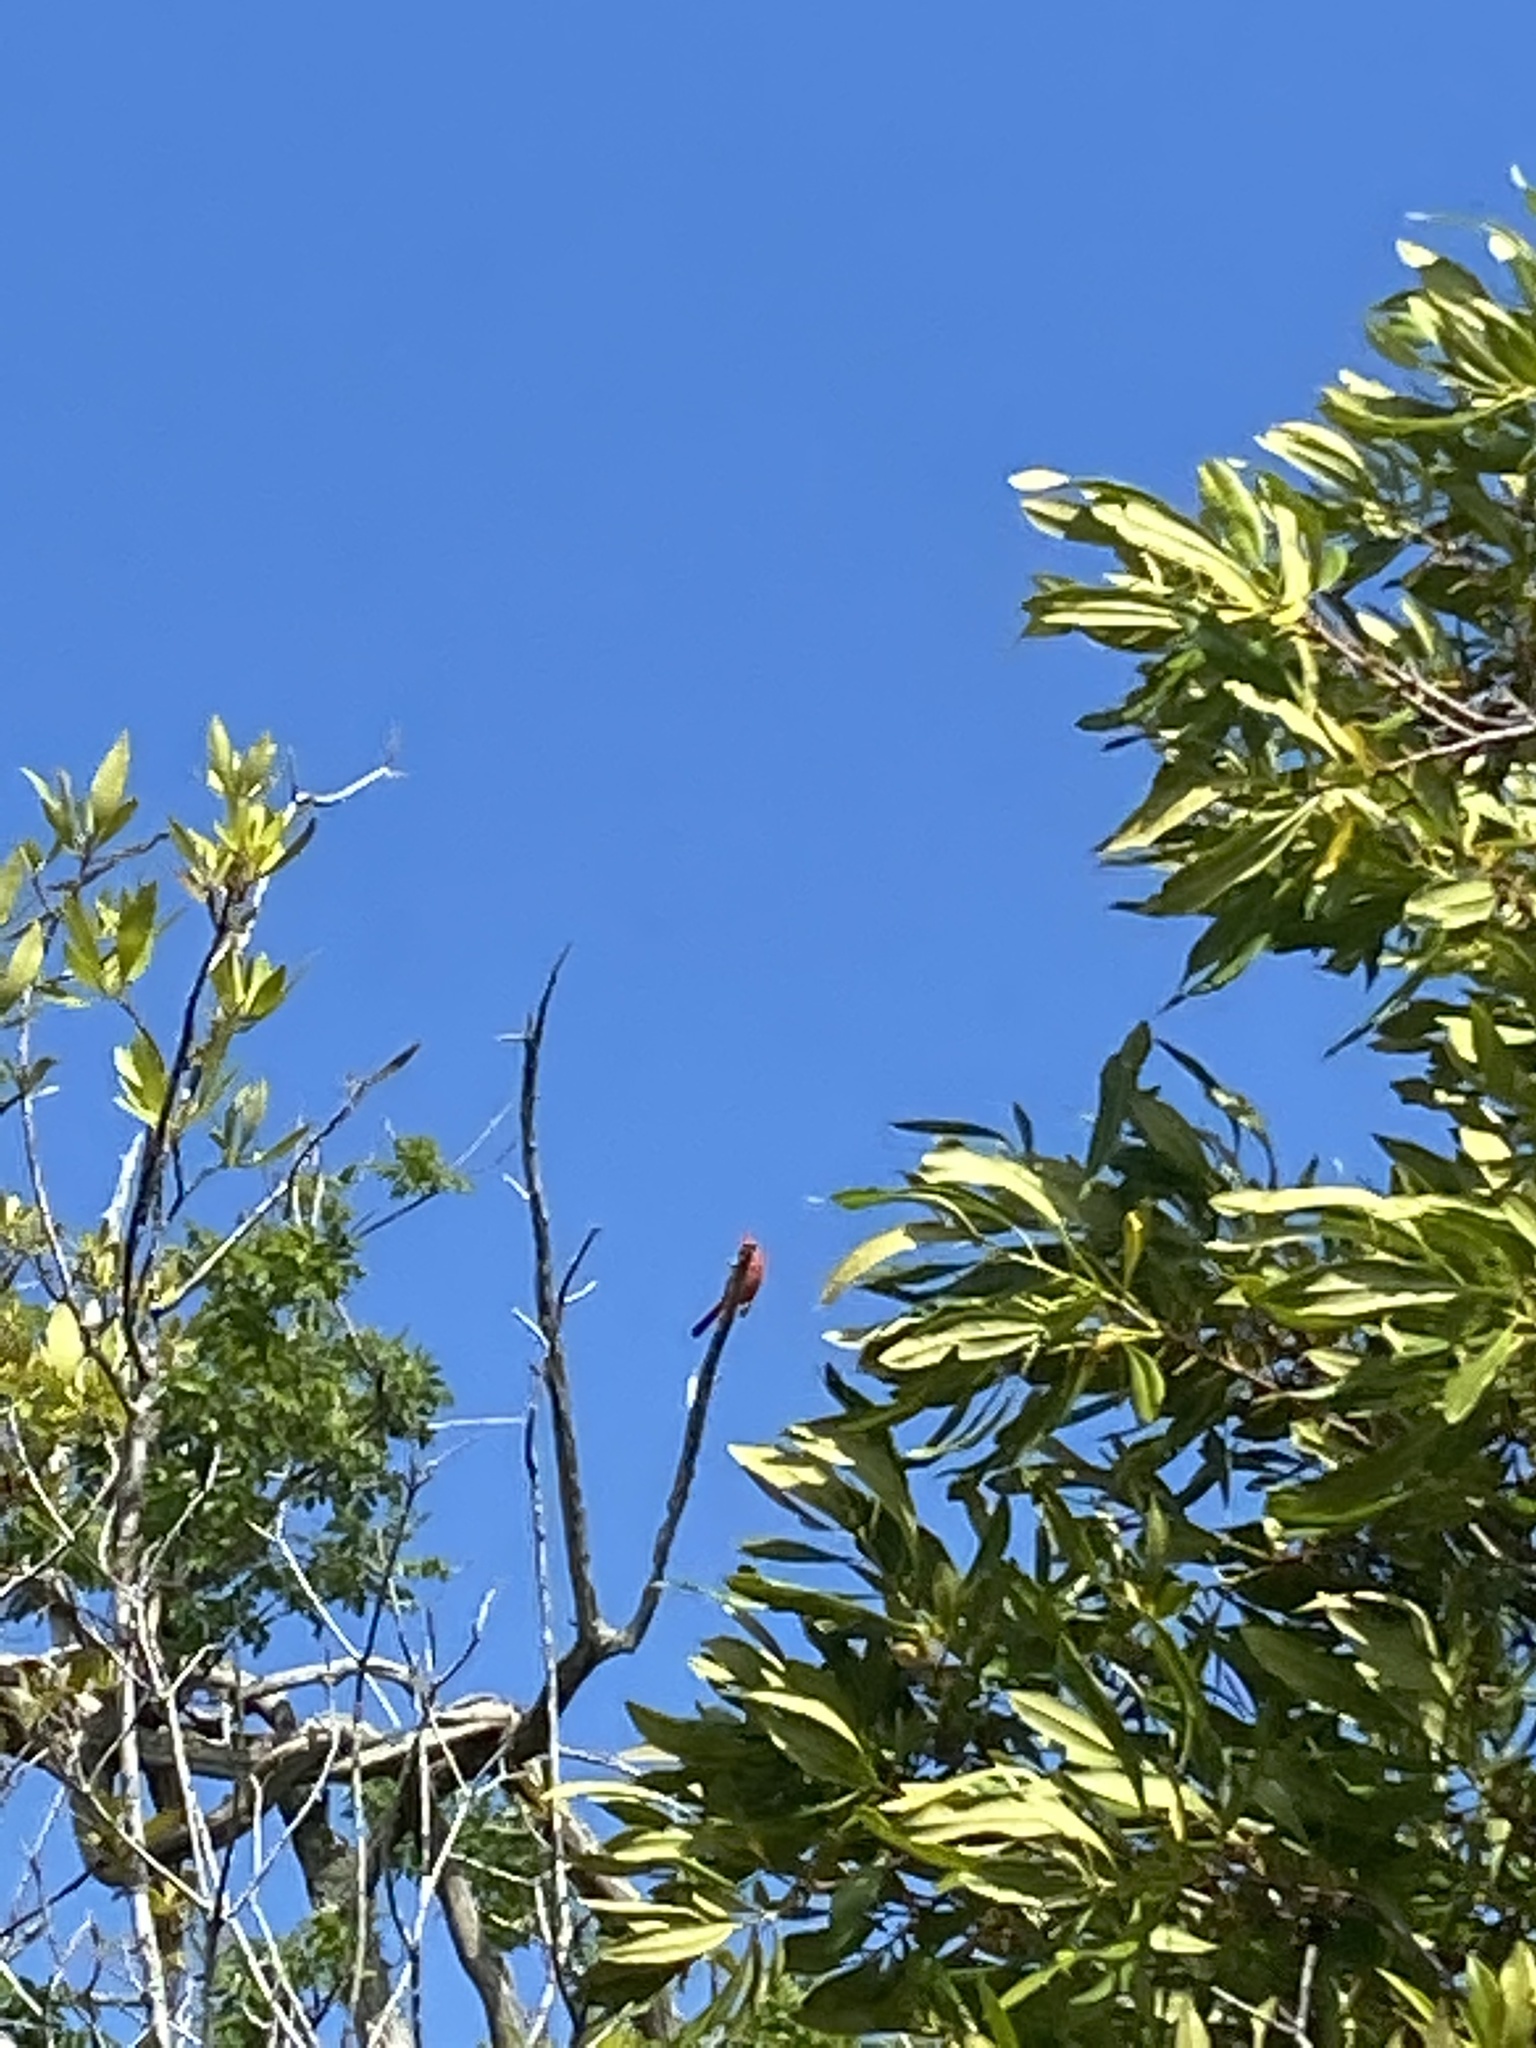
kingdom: Animalia
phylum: Chordata
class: Aves
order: Passeriformes
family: Cardinalidae
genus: Cardinalis
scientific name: Cardinalis cardinalis
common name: Northern cardinal
